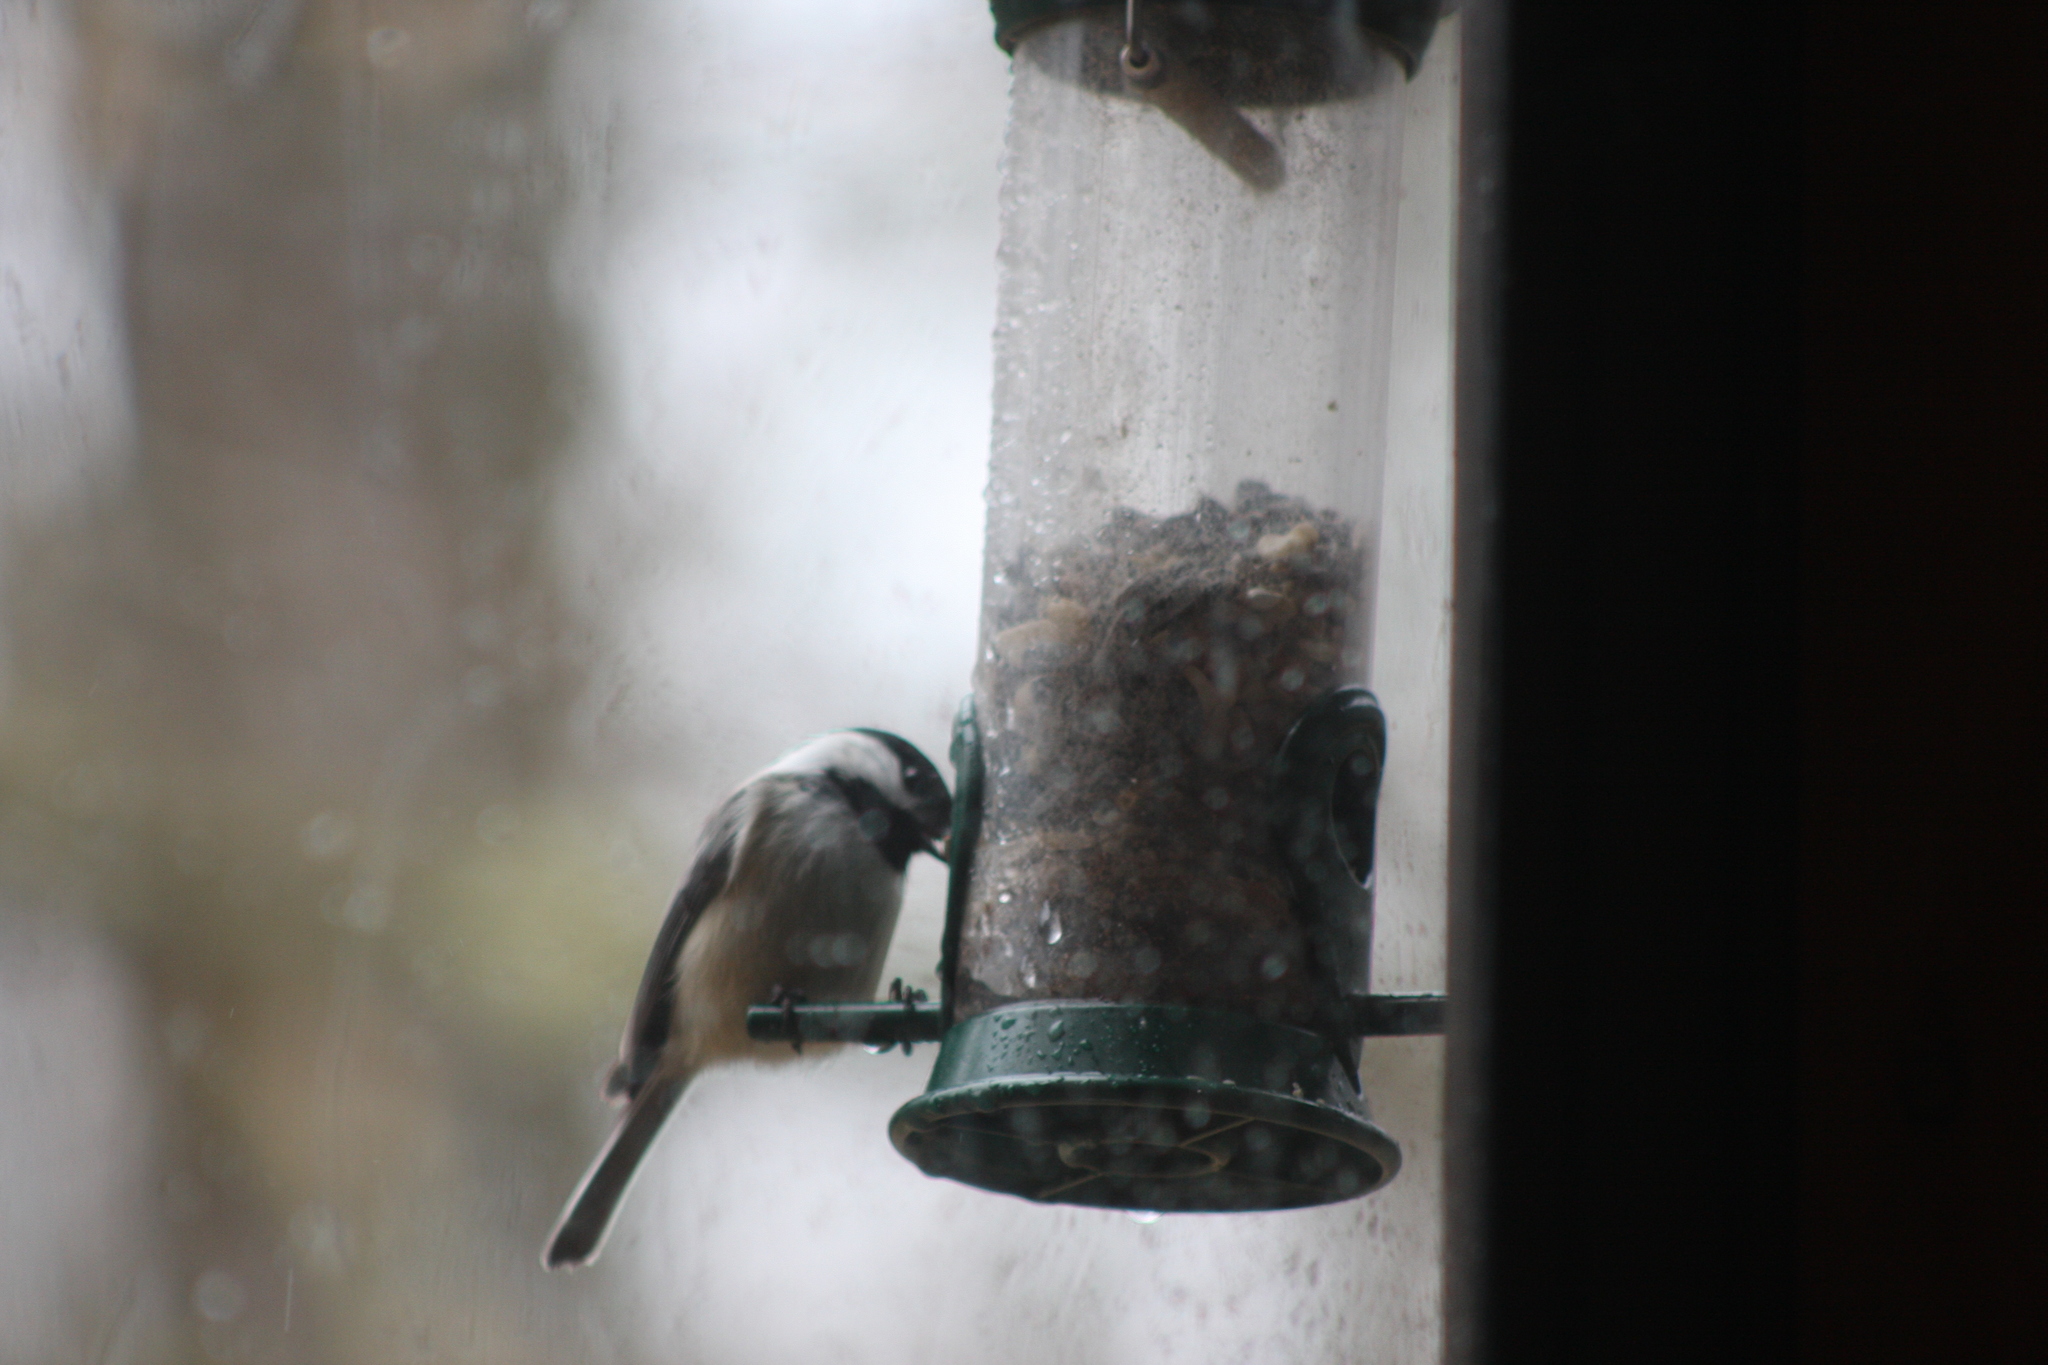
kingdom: Animalia
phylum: Chordata
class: Aves
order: Passeriformes
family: Paridae
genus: Poecile
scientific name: Poecile atricapillus
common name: Black-capped chickadee
